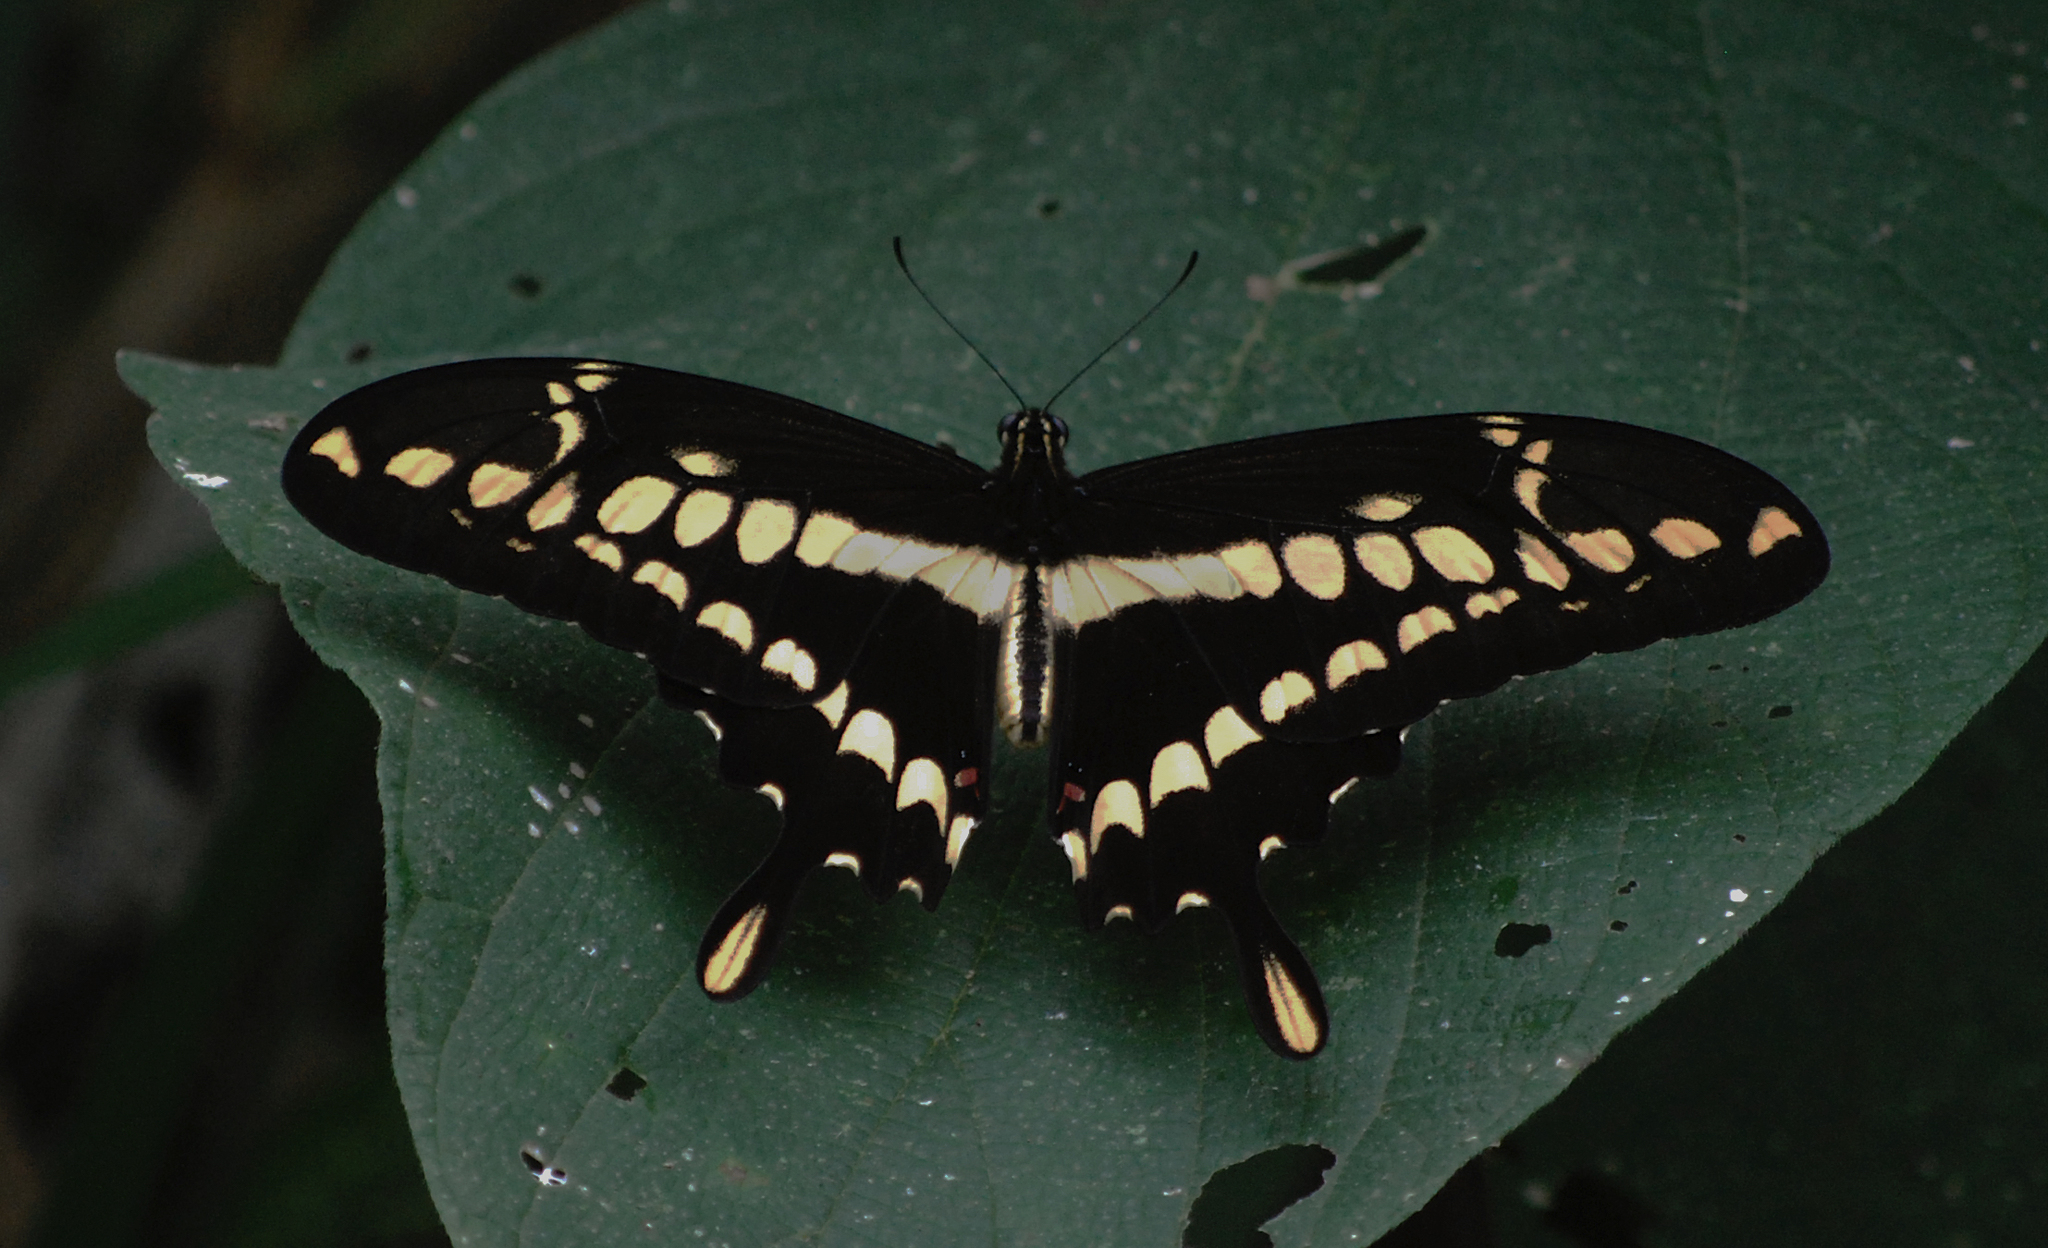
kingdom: Animalia
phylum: Arthropoda
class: Insecta
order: Lepidoptera
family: Papilionidae
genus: Papilio
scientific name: Papilio thoas
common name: King swallowtail
